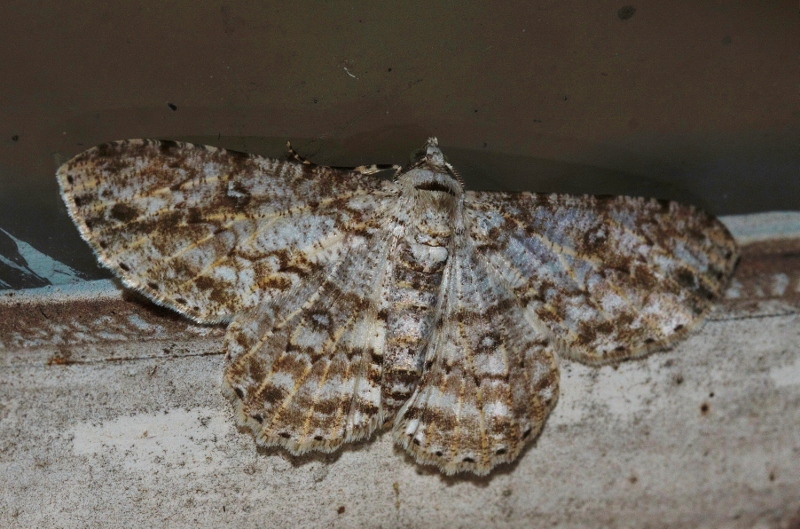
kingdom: Animalia
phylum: Arthropoda
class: Insecta
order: Lepidoptera
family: Geometridae
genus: Ascotis
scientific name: Ascotis reciprocaria
